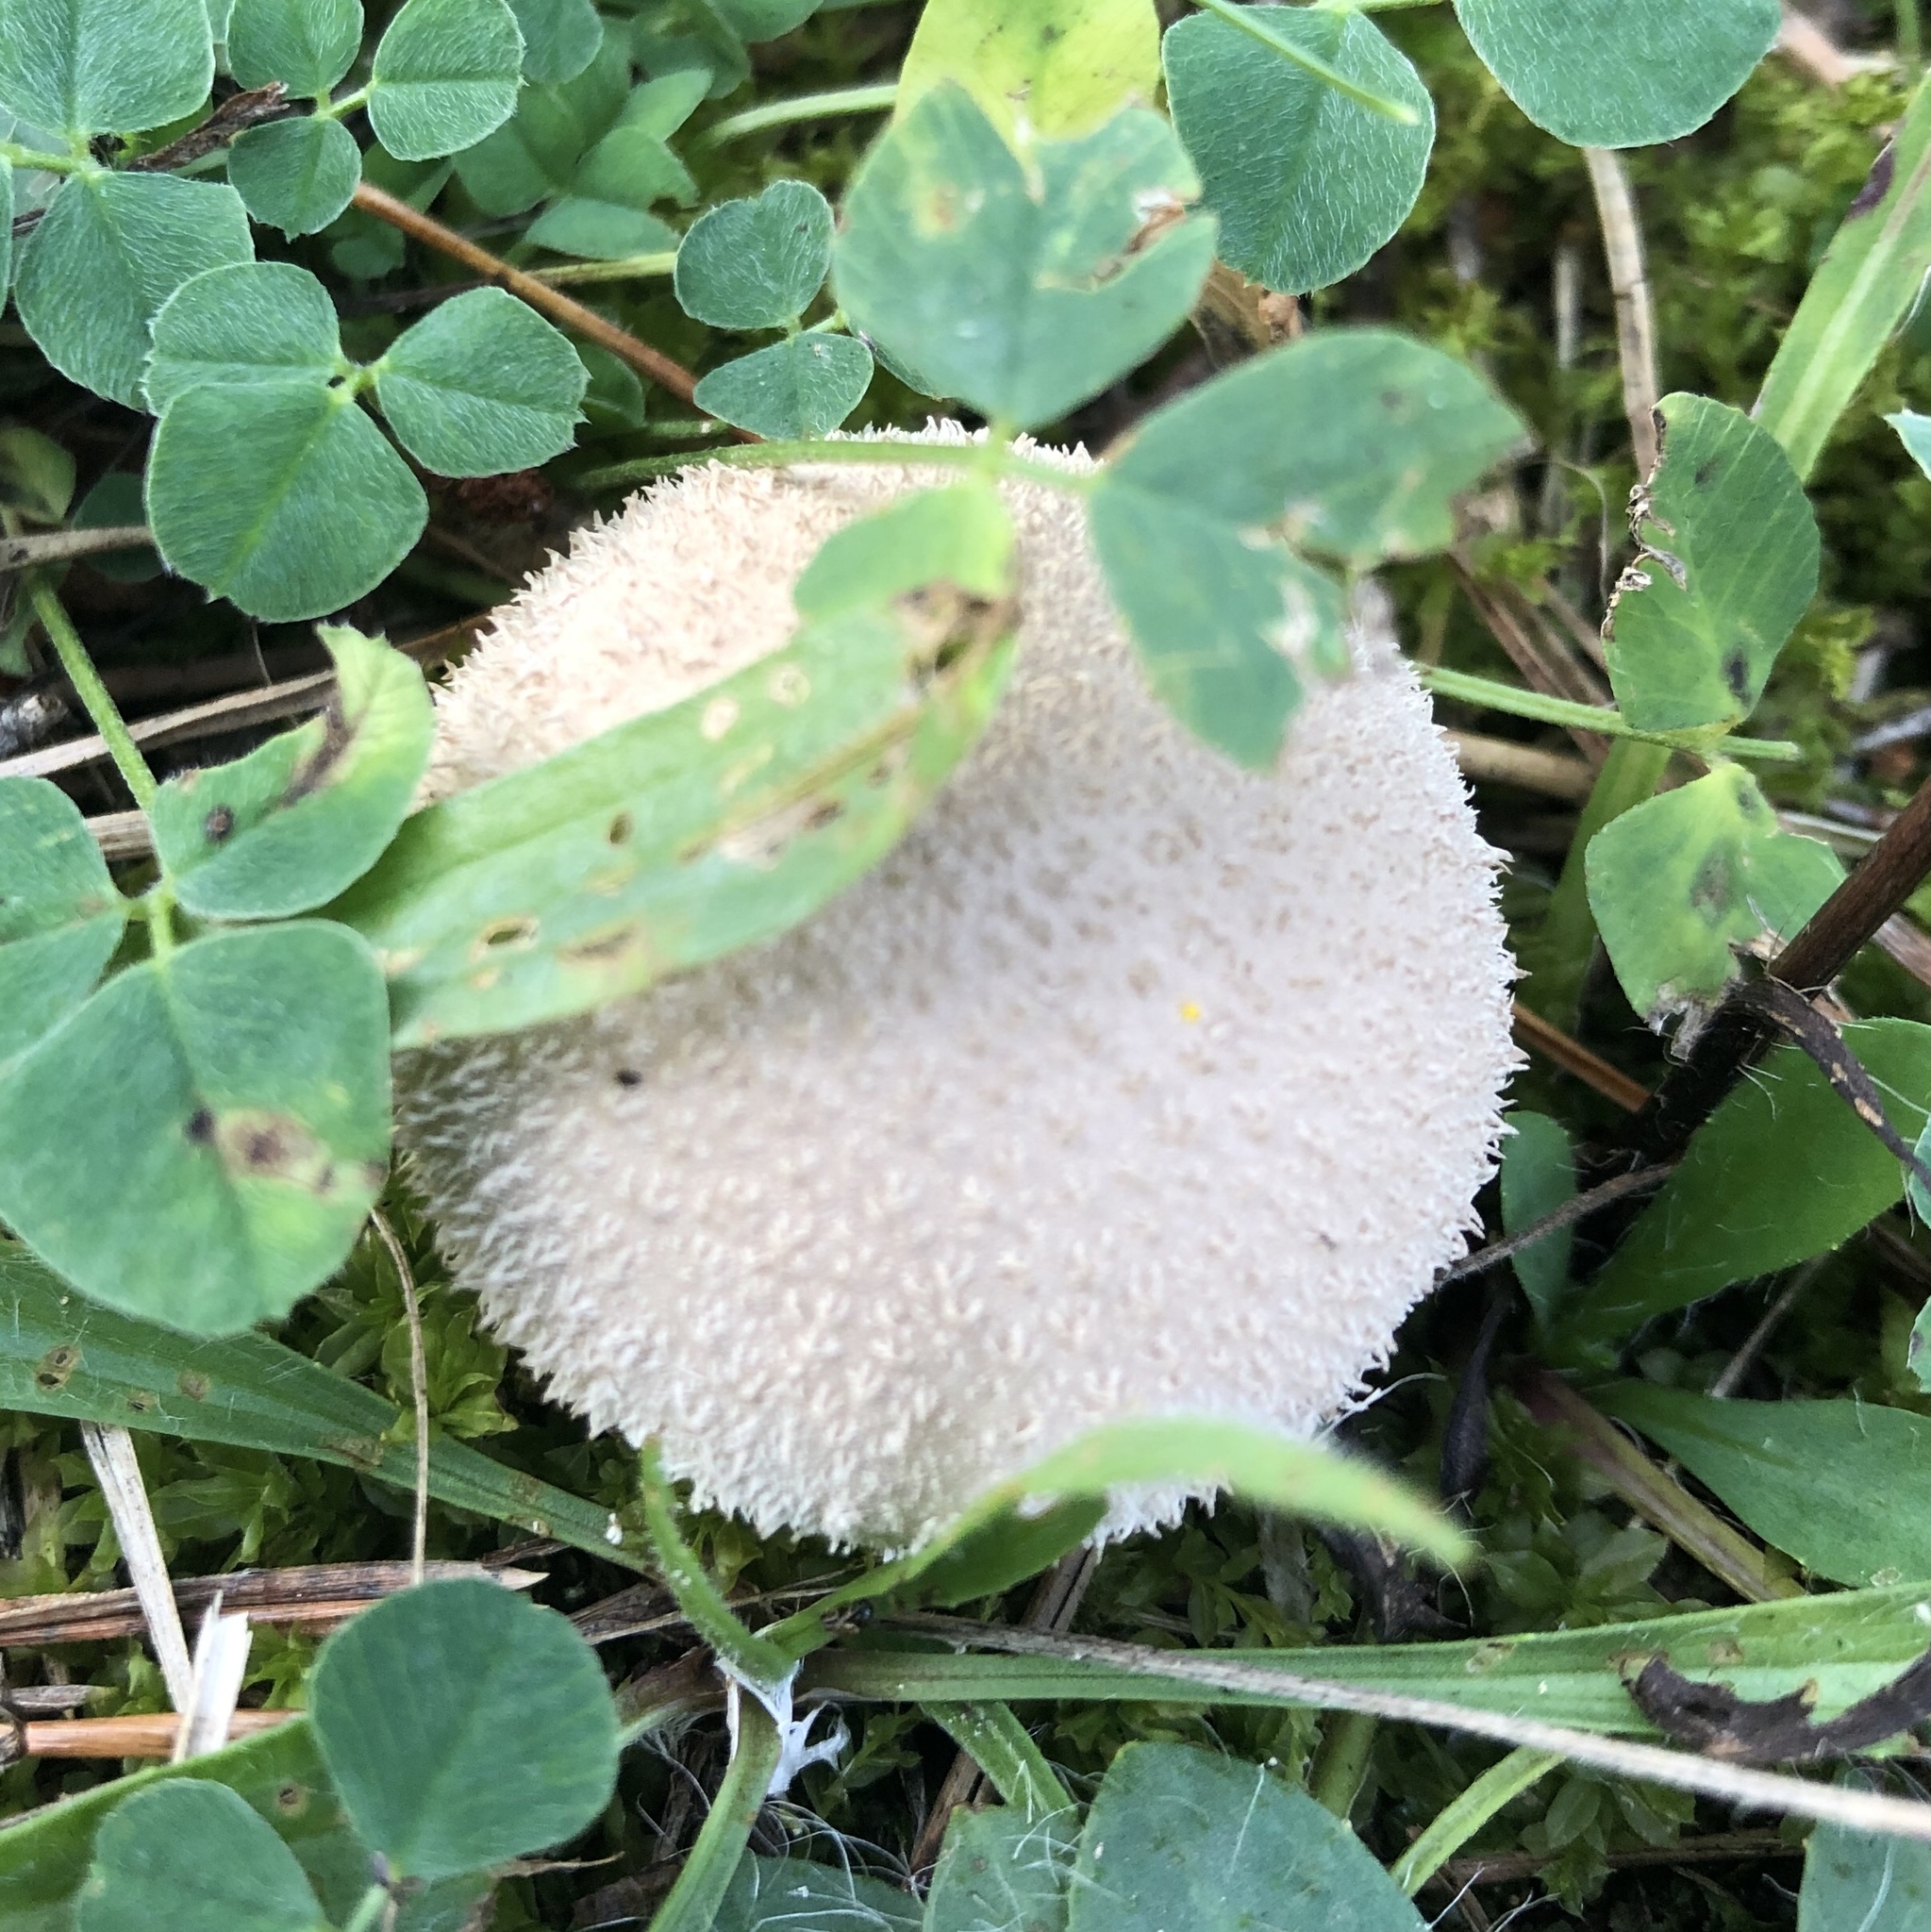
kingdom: Fungi
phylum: Basidiomycota
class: Agaricomycetes
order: Agaricales
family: Lycoperdaceae
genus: Lycoperdon
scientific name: Lycoperdon pratense
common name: Meadow puffball
